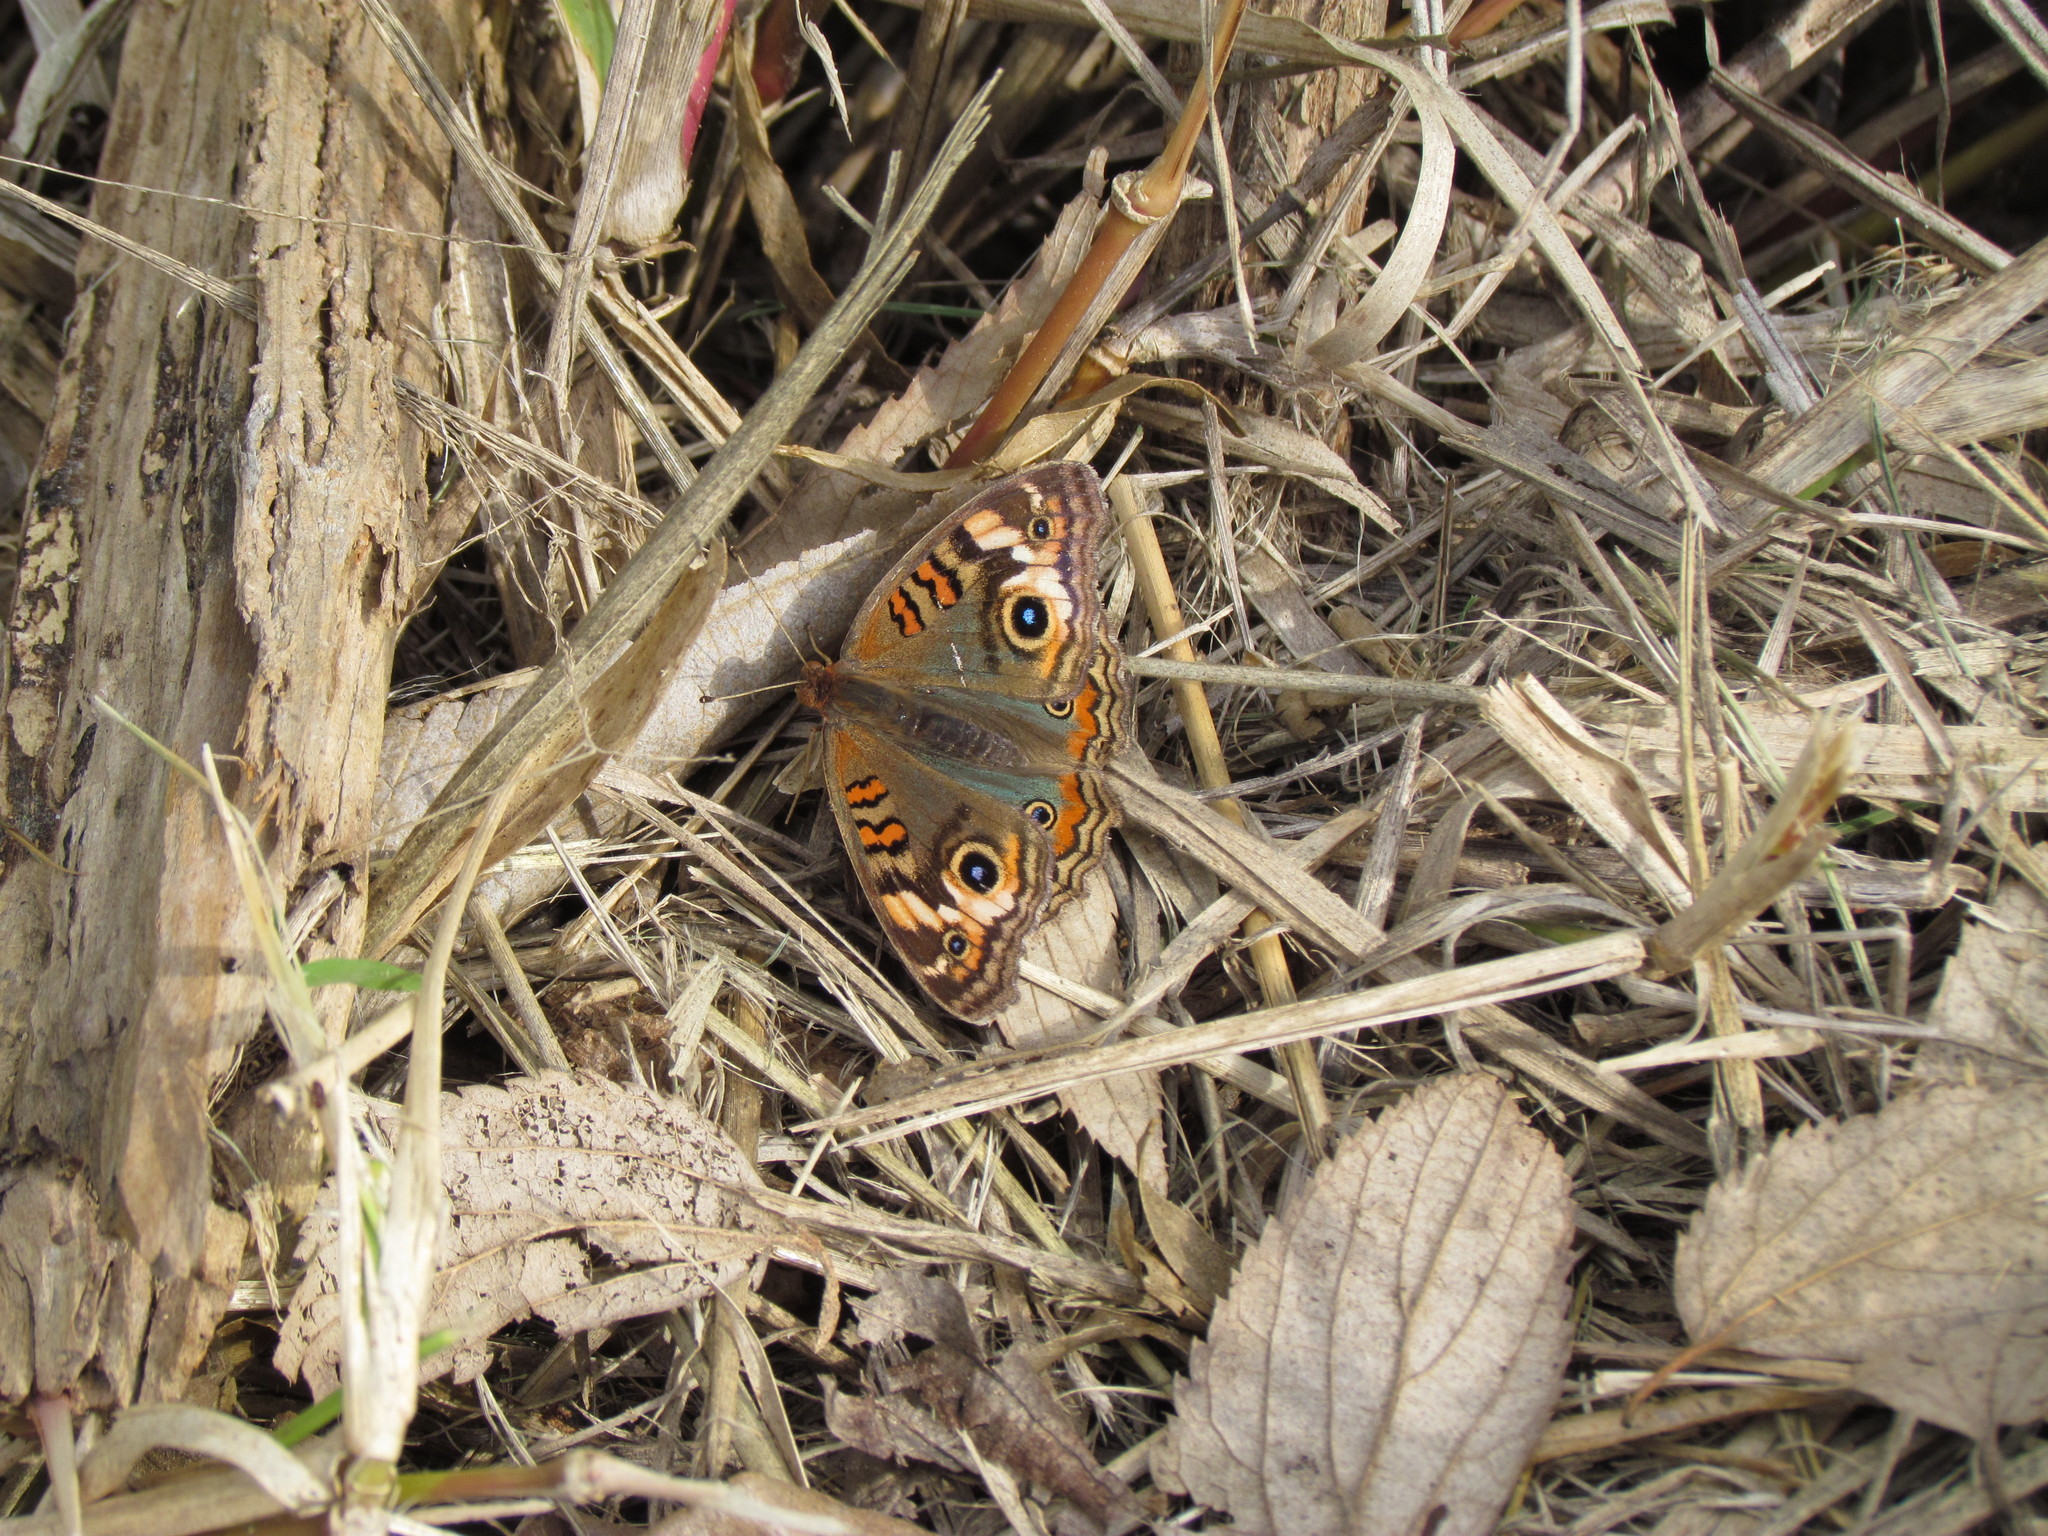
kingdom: Animalia
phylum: Arthropoda
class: Insecta
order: Lepidoptera
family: Nymphalidae
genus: Junonia
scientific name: Junonia lavinia
